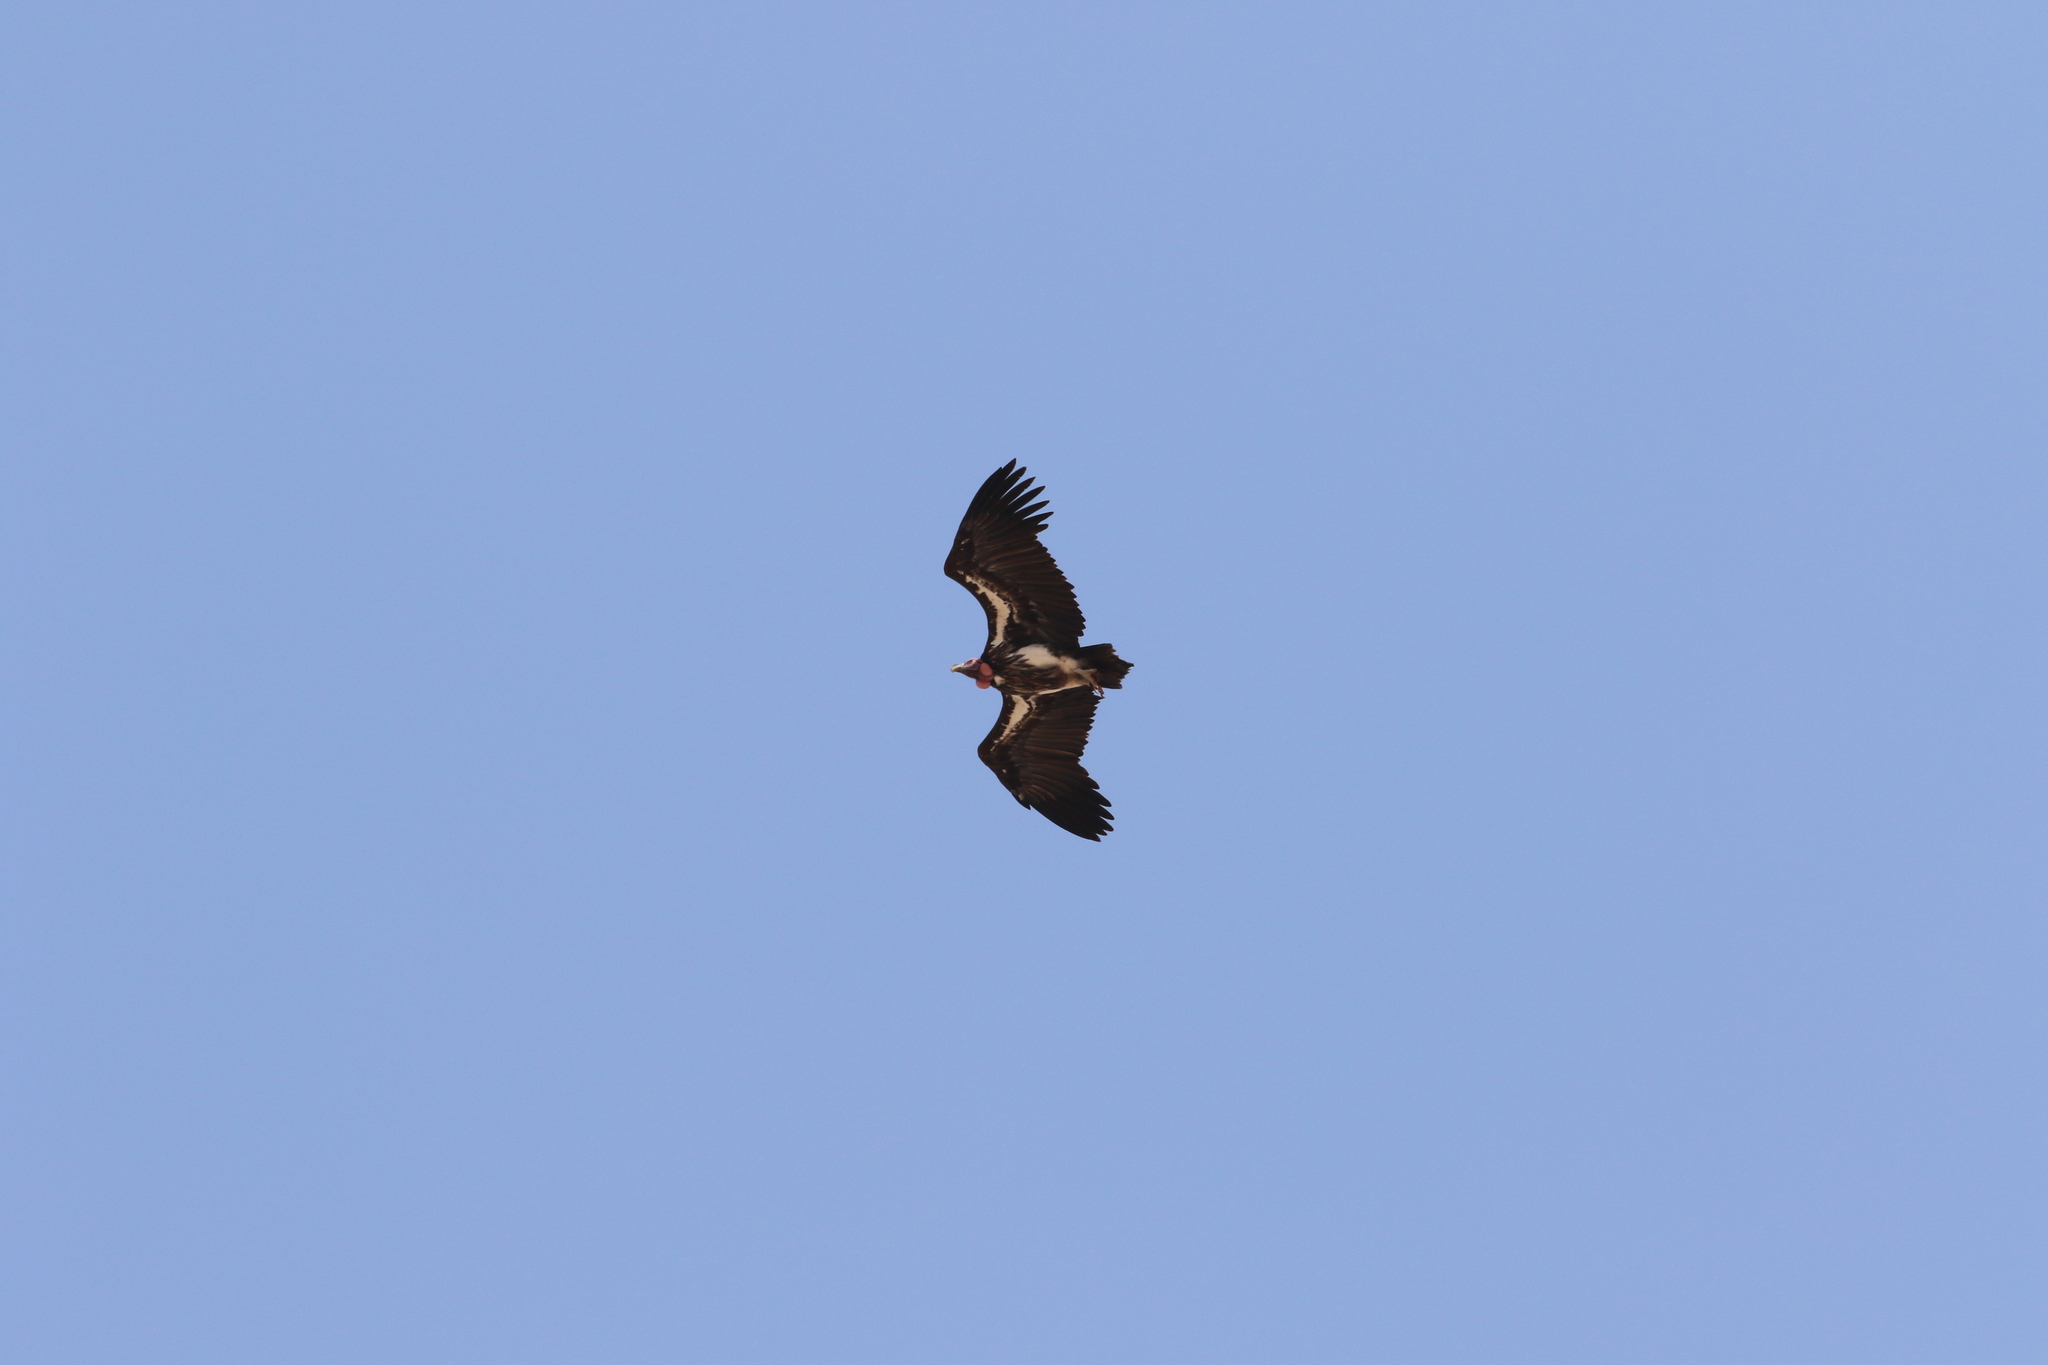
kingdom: Animalia
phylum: Chordata
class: Aves
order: Accipitriformes
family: Accipitridae
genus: Torgos
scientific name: Torgos tracheliotos
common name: Lappet-faced vulture
